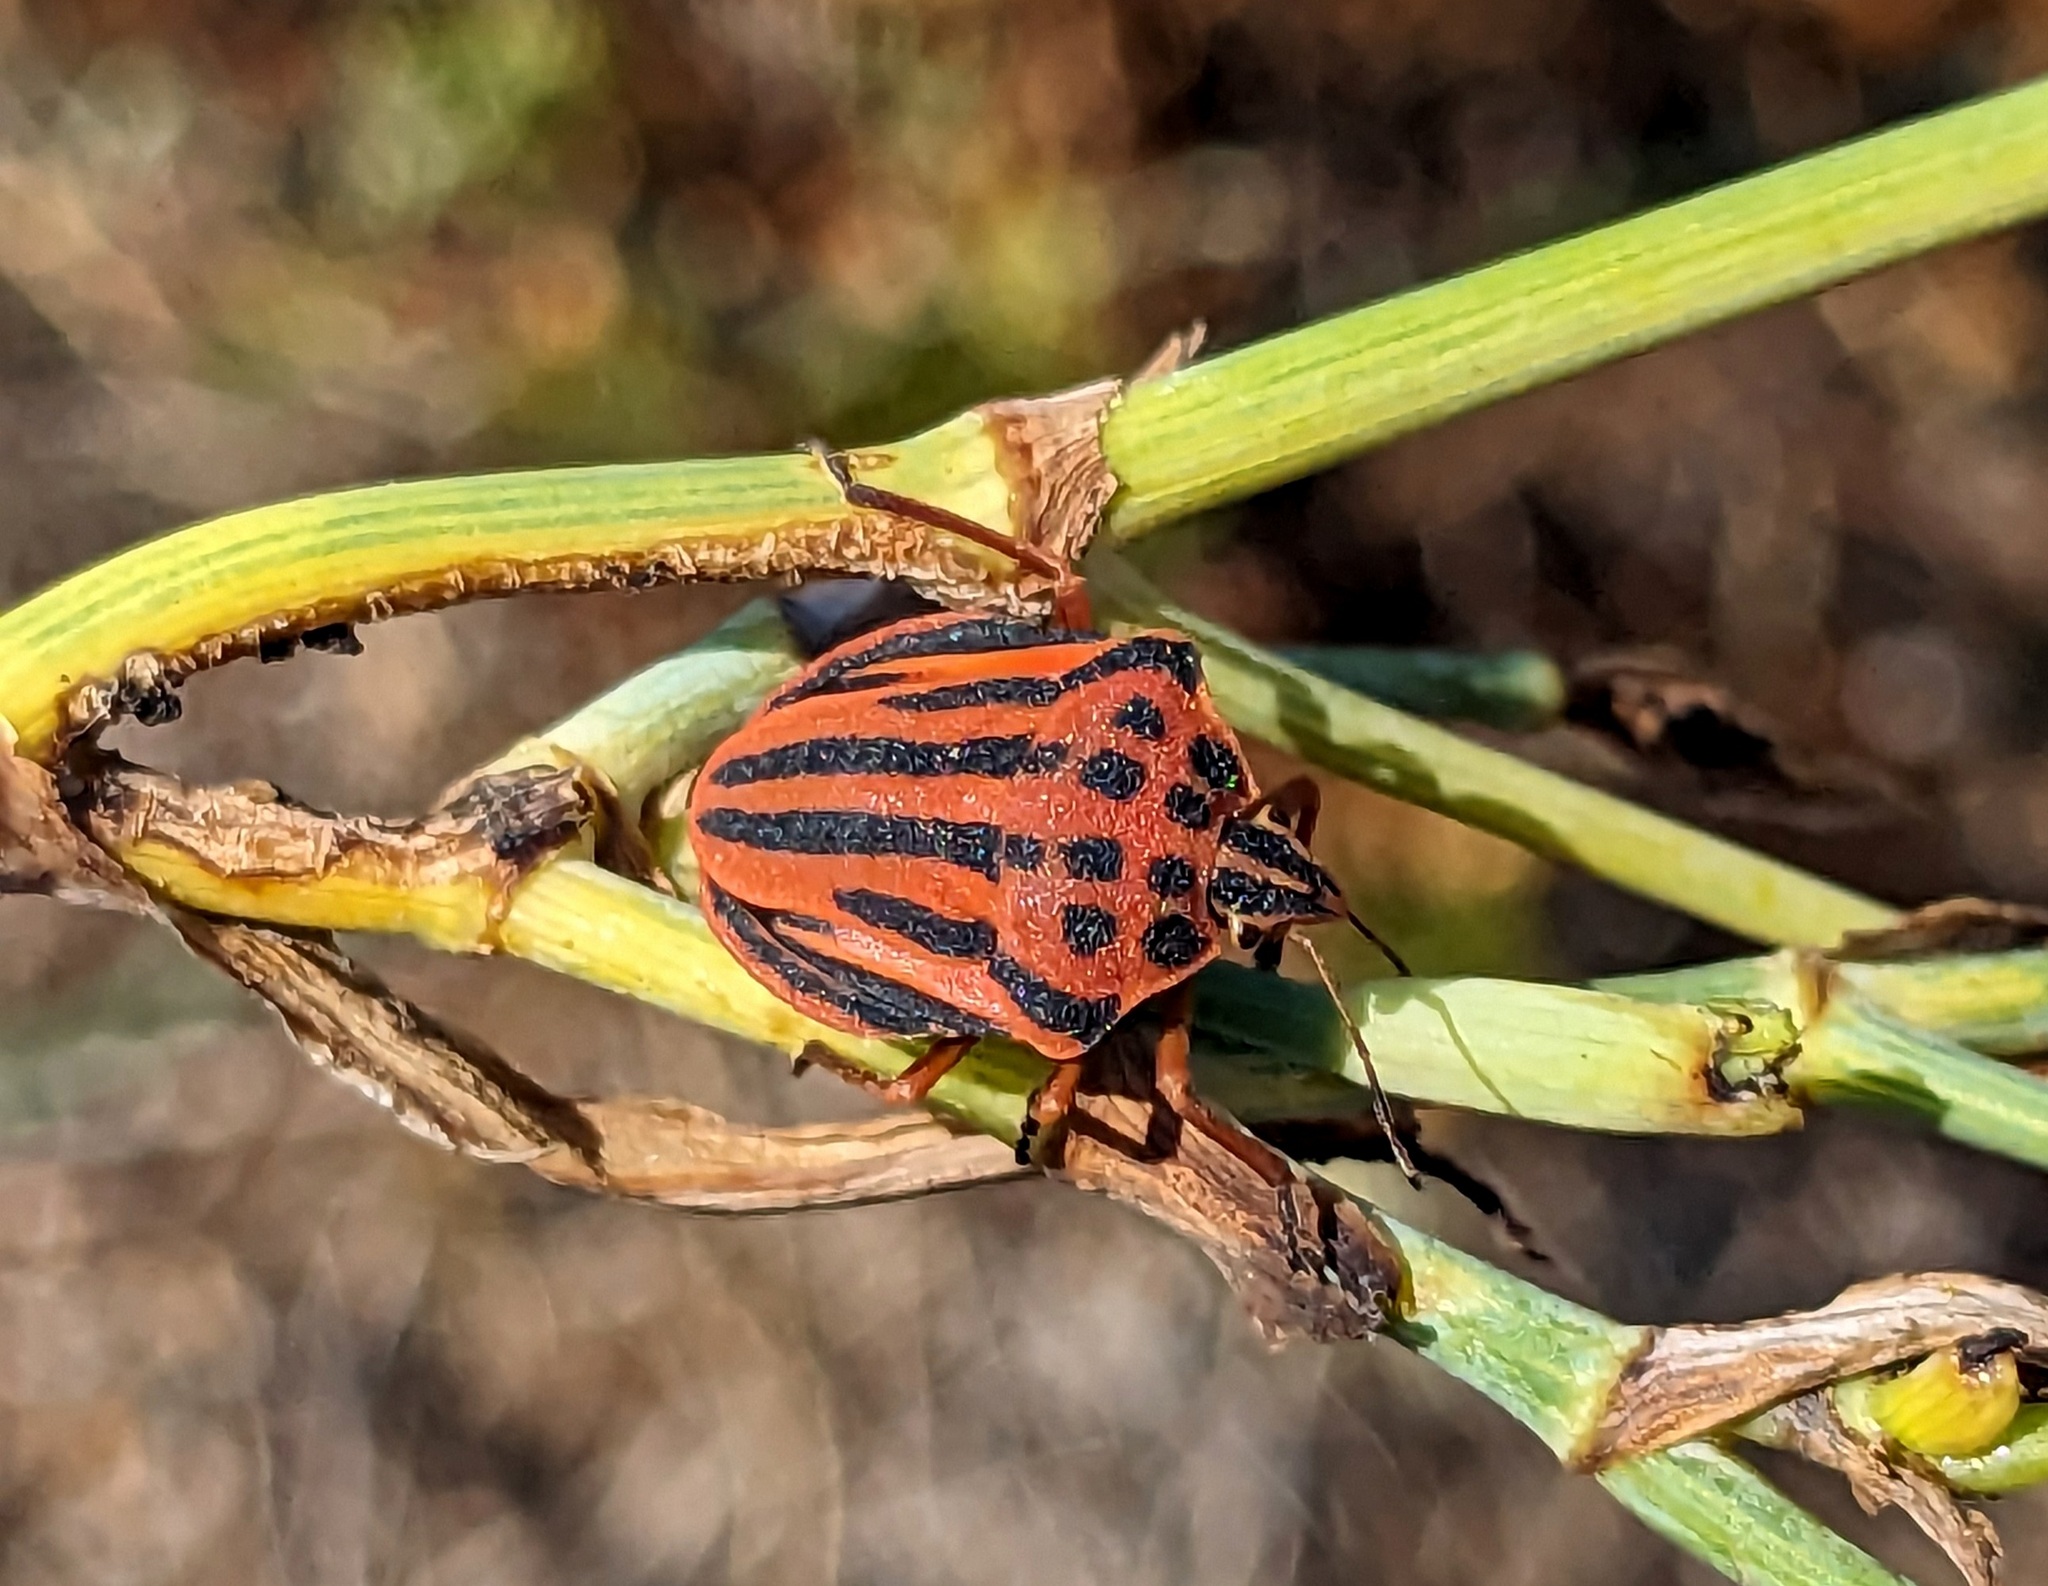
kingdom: Animalia
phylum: Arthropoda
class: Insecta
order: Hemiptera
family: Pentatomidae
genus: Graphosoma
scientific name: Graphosoma semipunctatum
